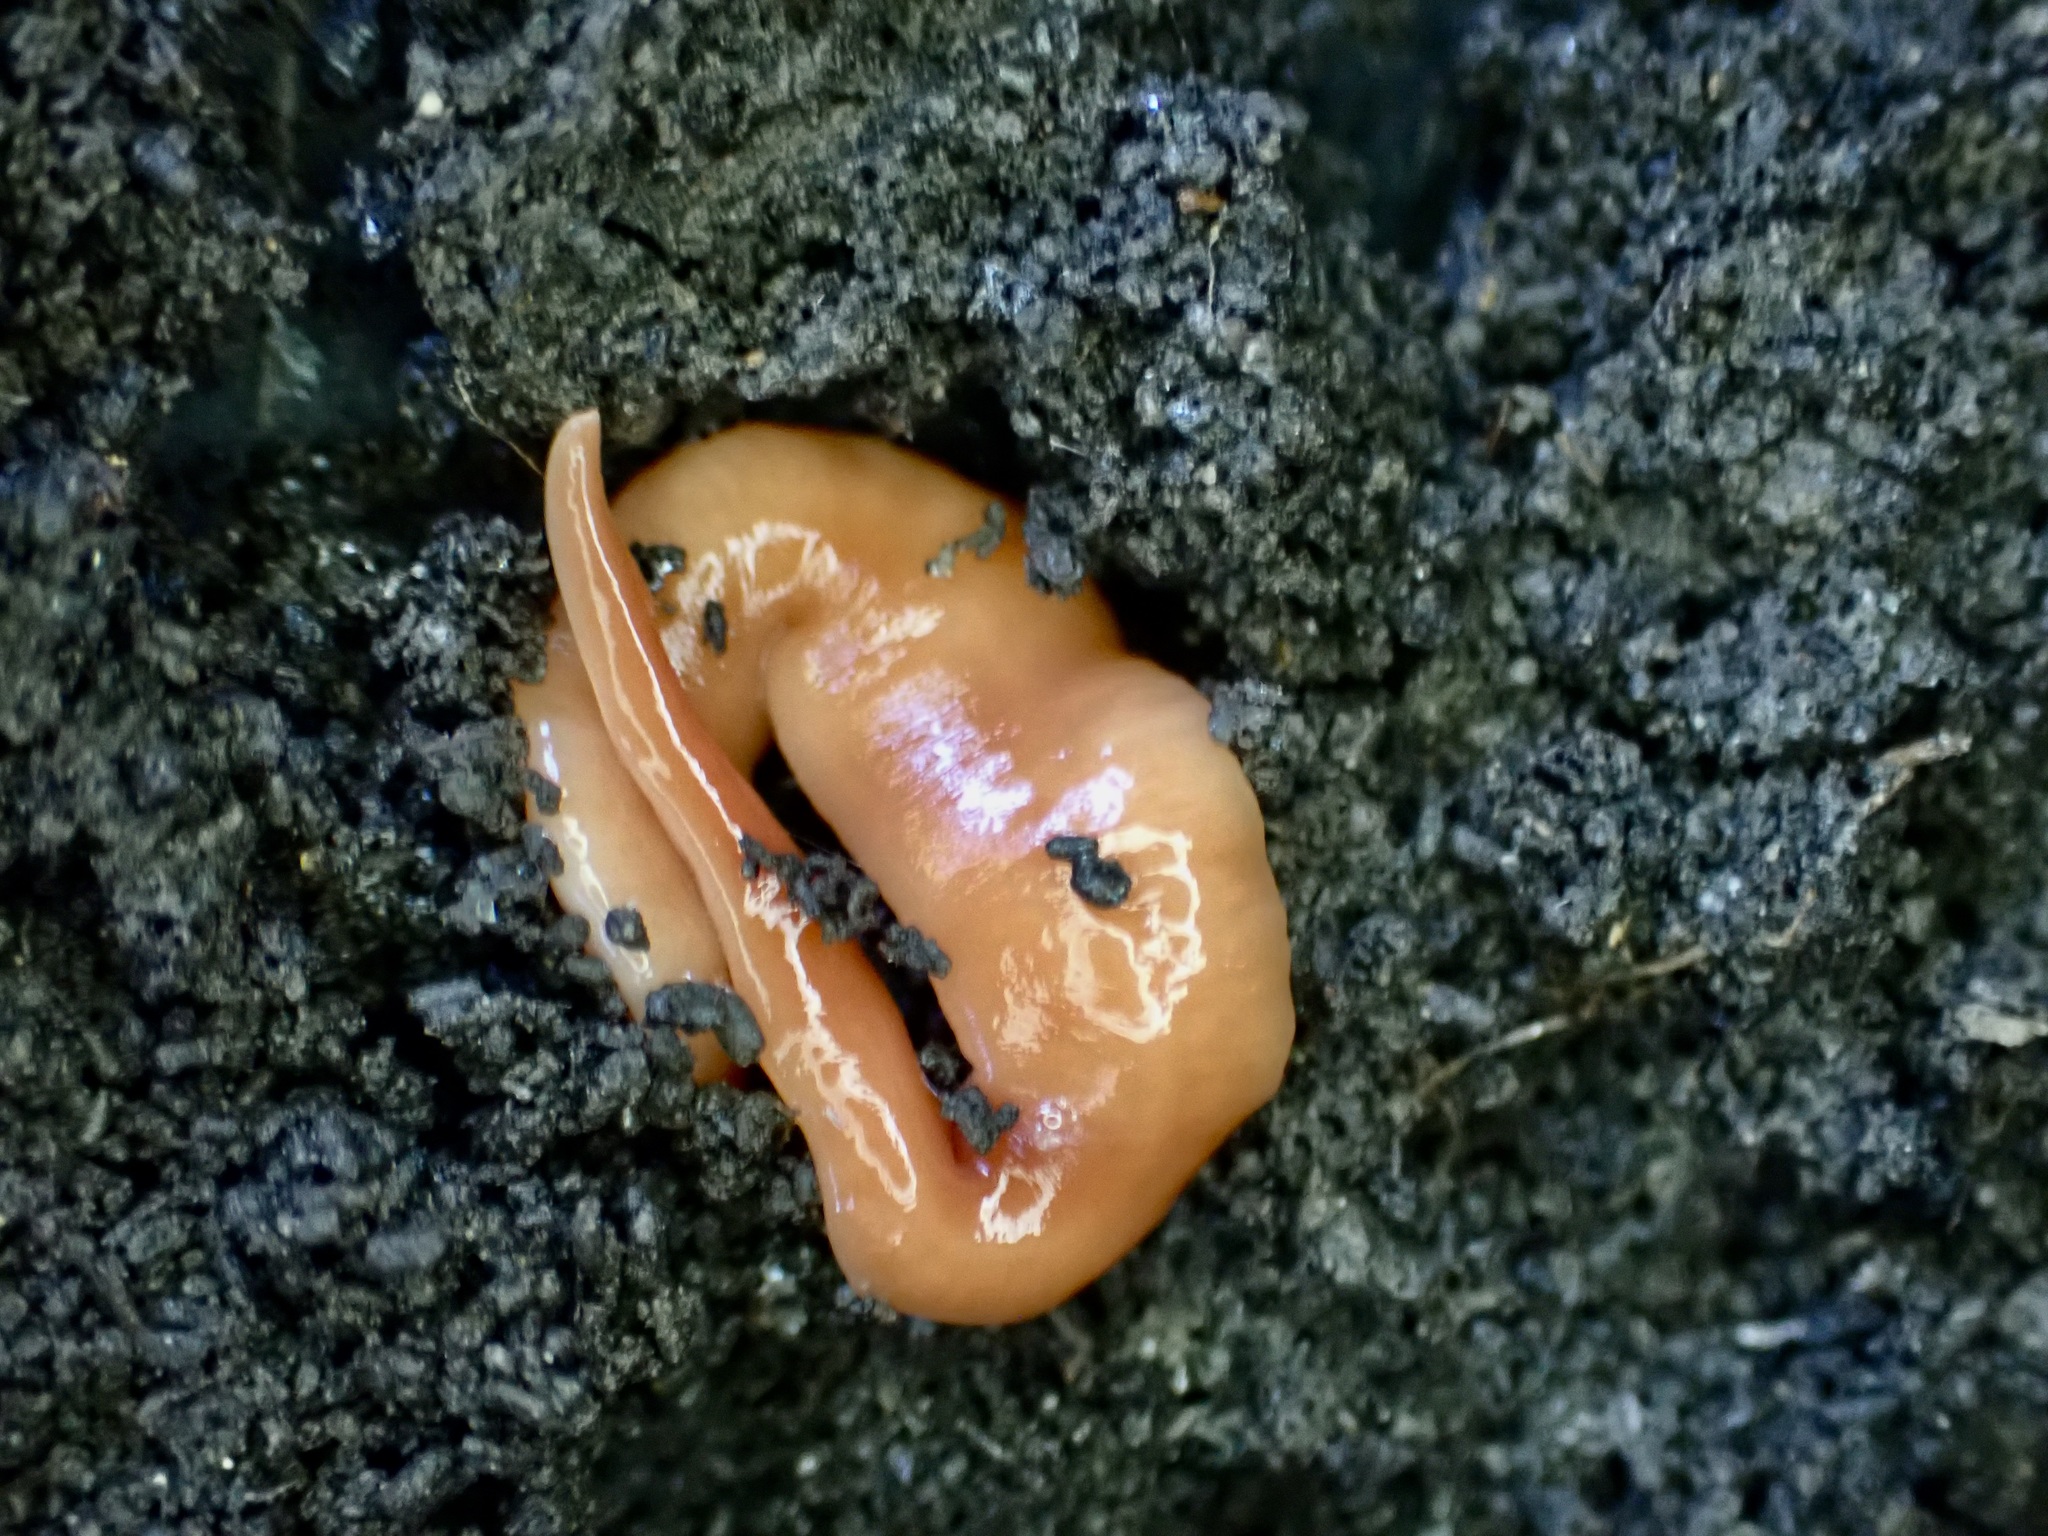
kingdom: Animalia
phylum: Platyhelminthes
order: Tricladida
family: Geoplanidae
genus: Australoplana
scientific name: Australoplana sanguinea
